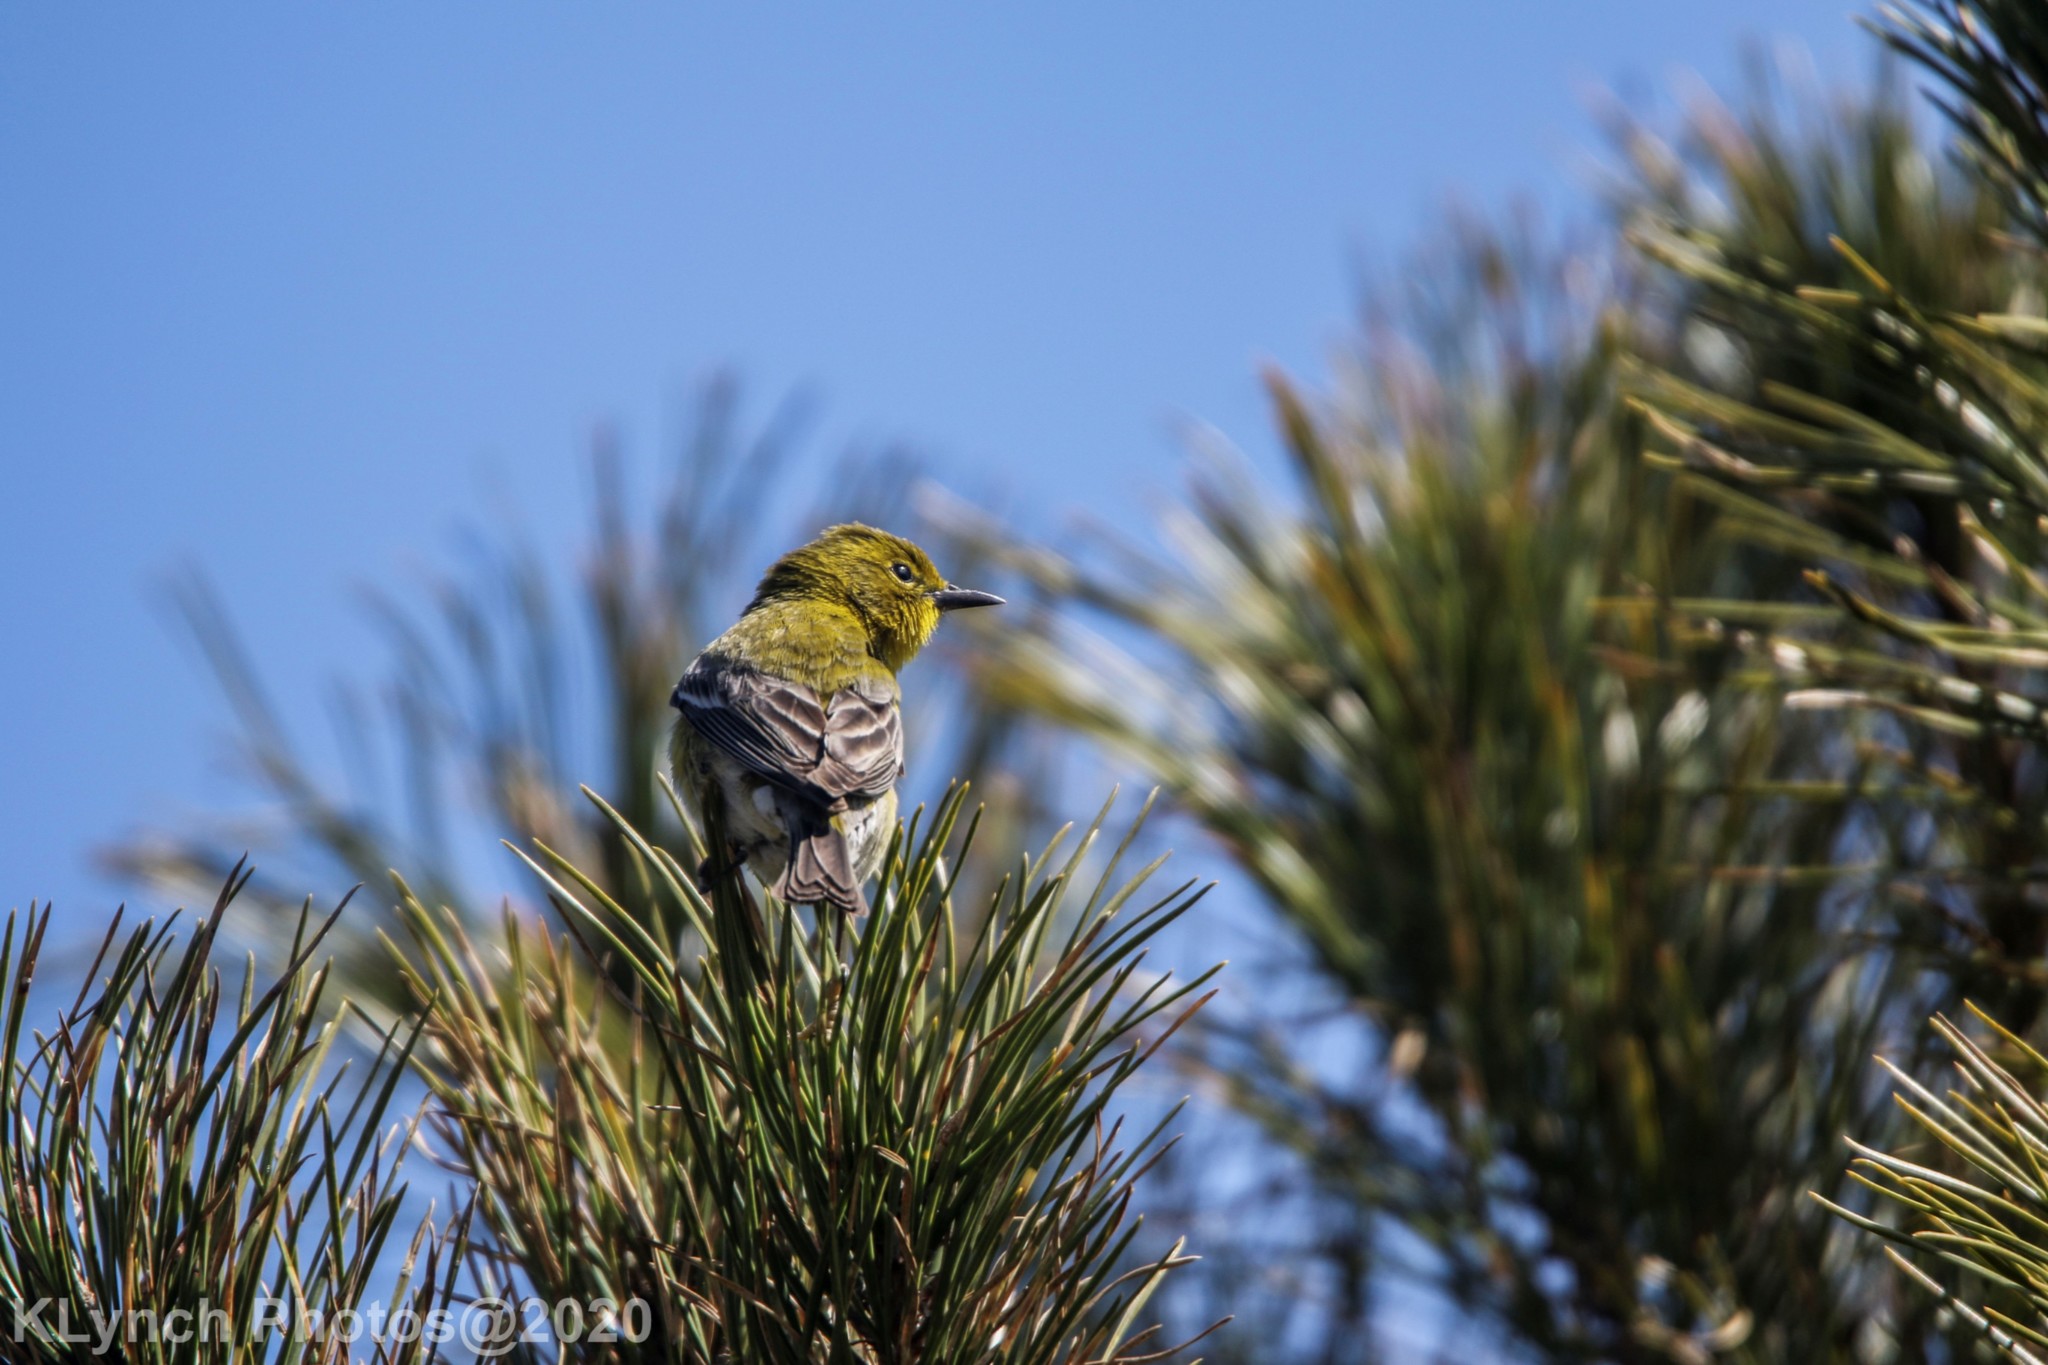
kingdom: Animalia
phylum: Chordata
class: Aves
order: Passeriformes
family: Parulidae
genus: Setophaga
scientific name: Setophaga pinus
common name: Pine warbler
